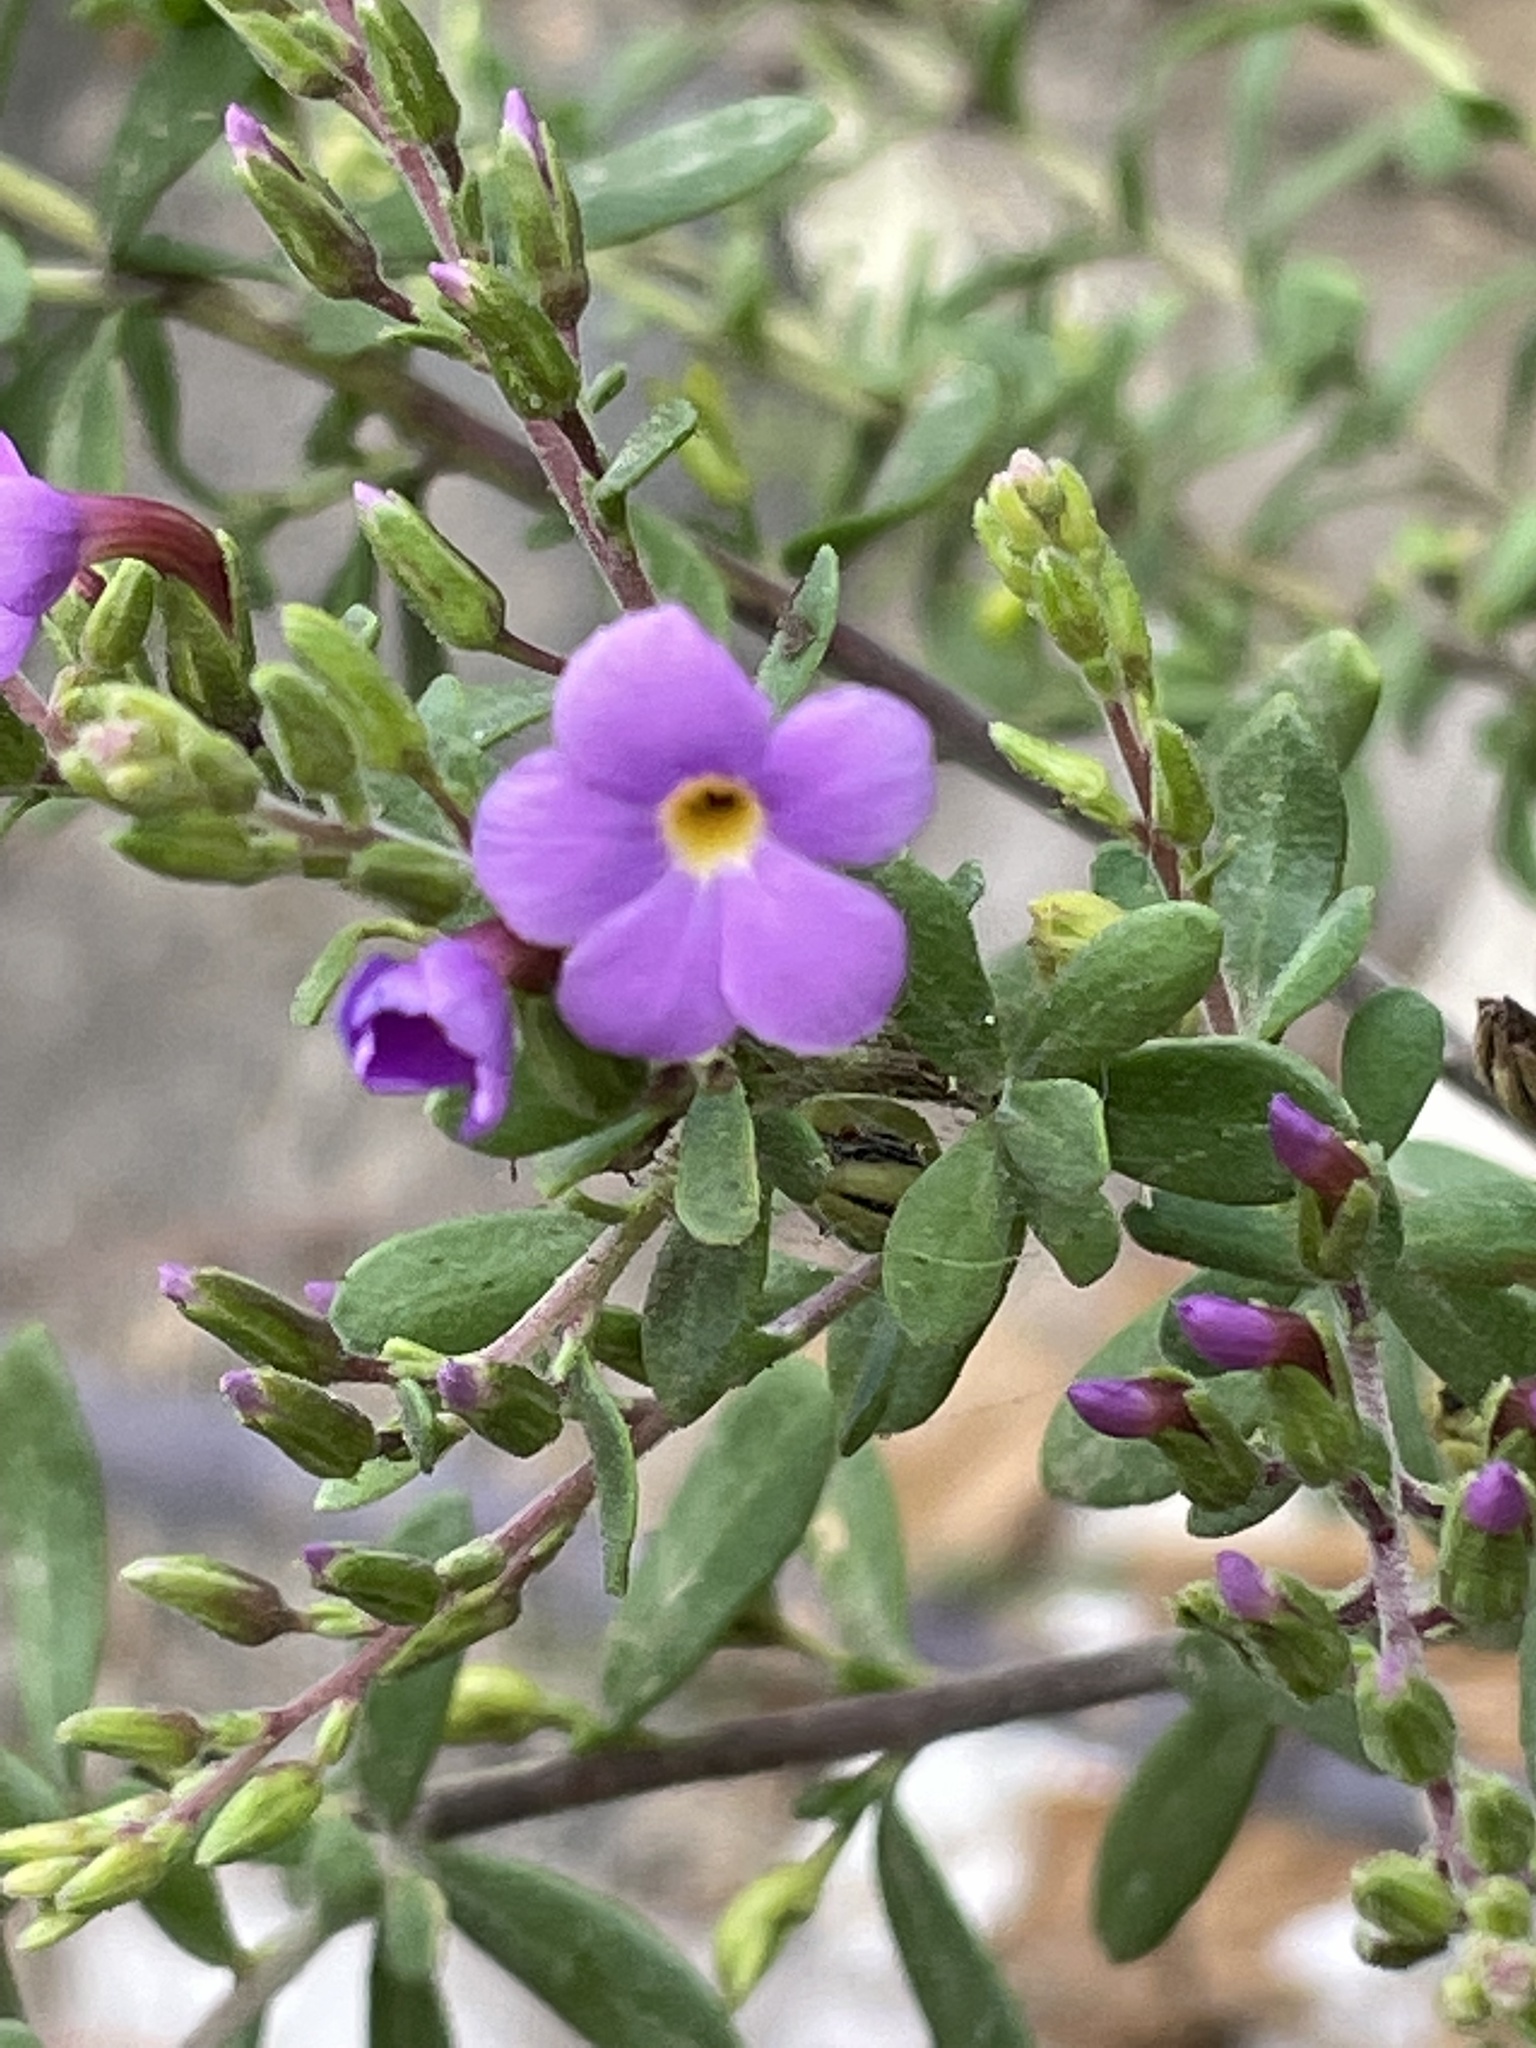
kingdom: Plantae
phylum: Tracheophyta
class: Magnoliopsida
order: Lamiales
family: Plantaginaceae
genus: Campylanthus
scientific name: Campylanthus glaber
